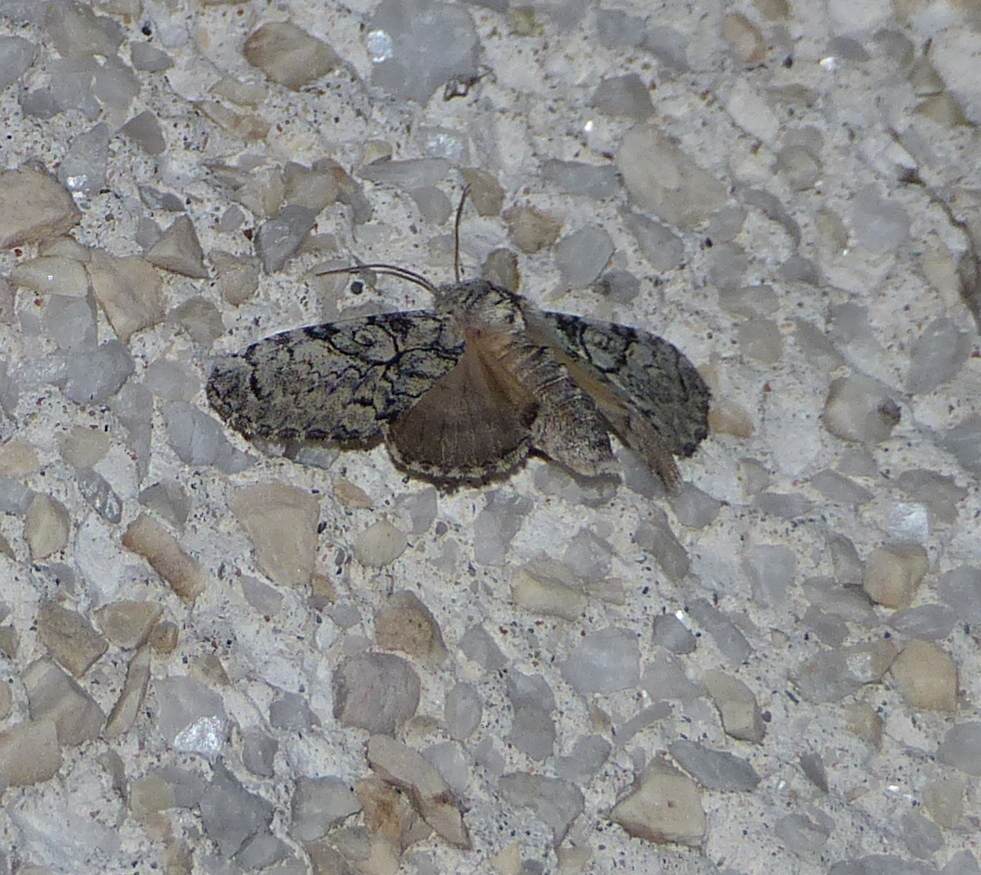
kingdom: Animalia
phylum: Arthropoda
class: Insecta
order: Lepidoptera
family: Noctuidae
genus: Charadra
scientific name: Charadra deridens
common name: Marbled tuffet
